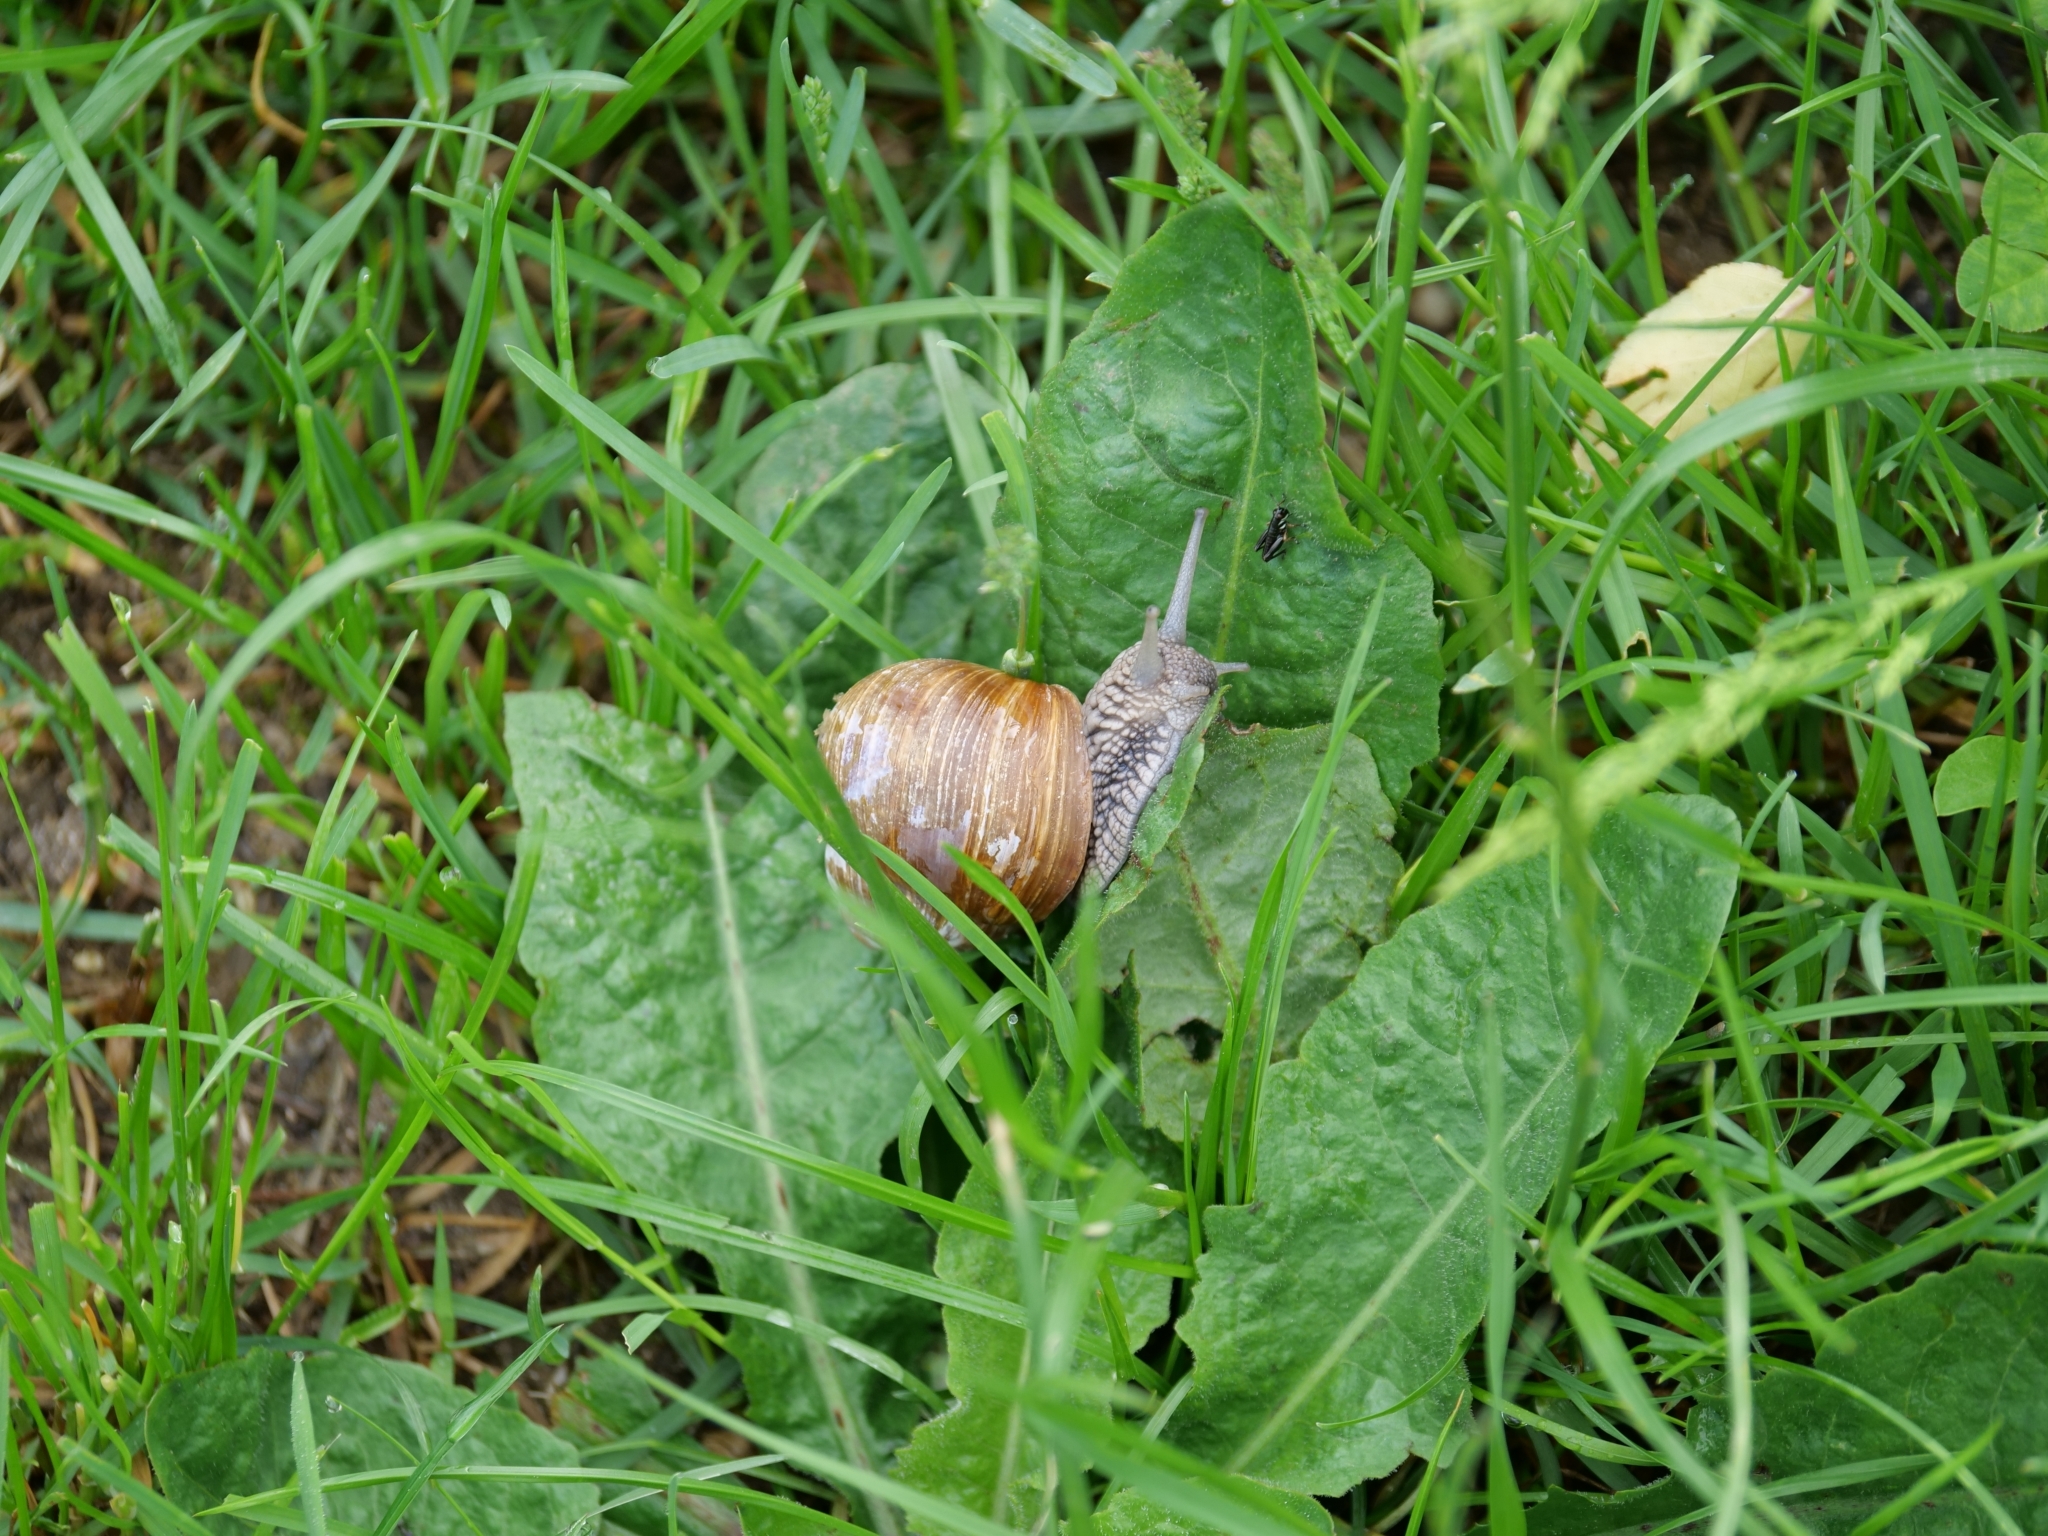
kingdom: Animalia
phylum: Mollusca
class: Gastropoda
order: Stylommatophora
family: Helicidae
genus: Helix
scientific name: Helix pomatia
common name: Roman snail
